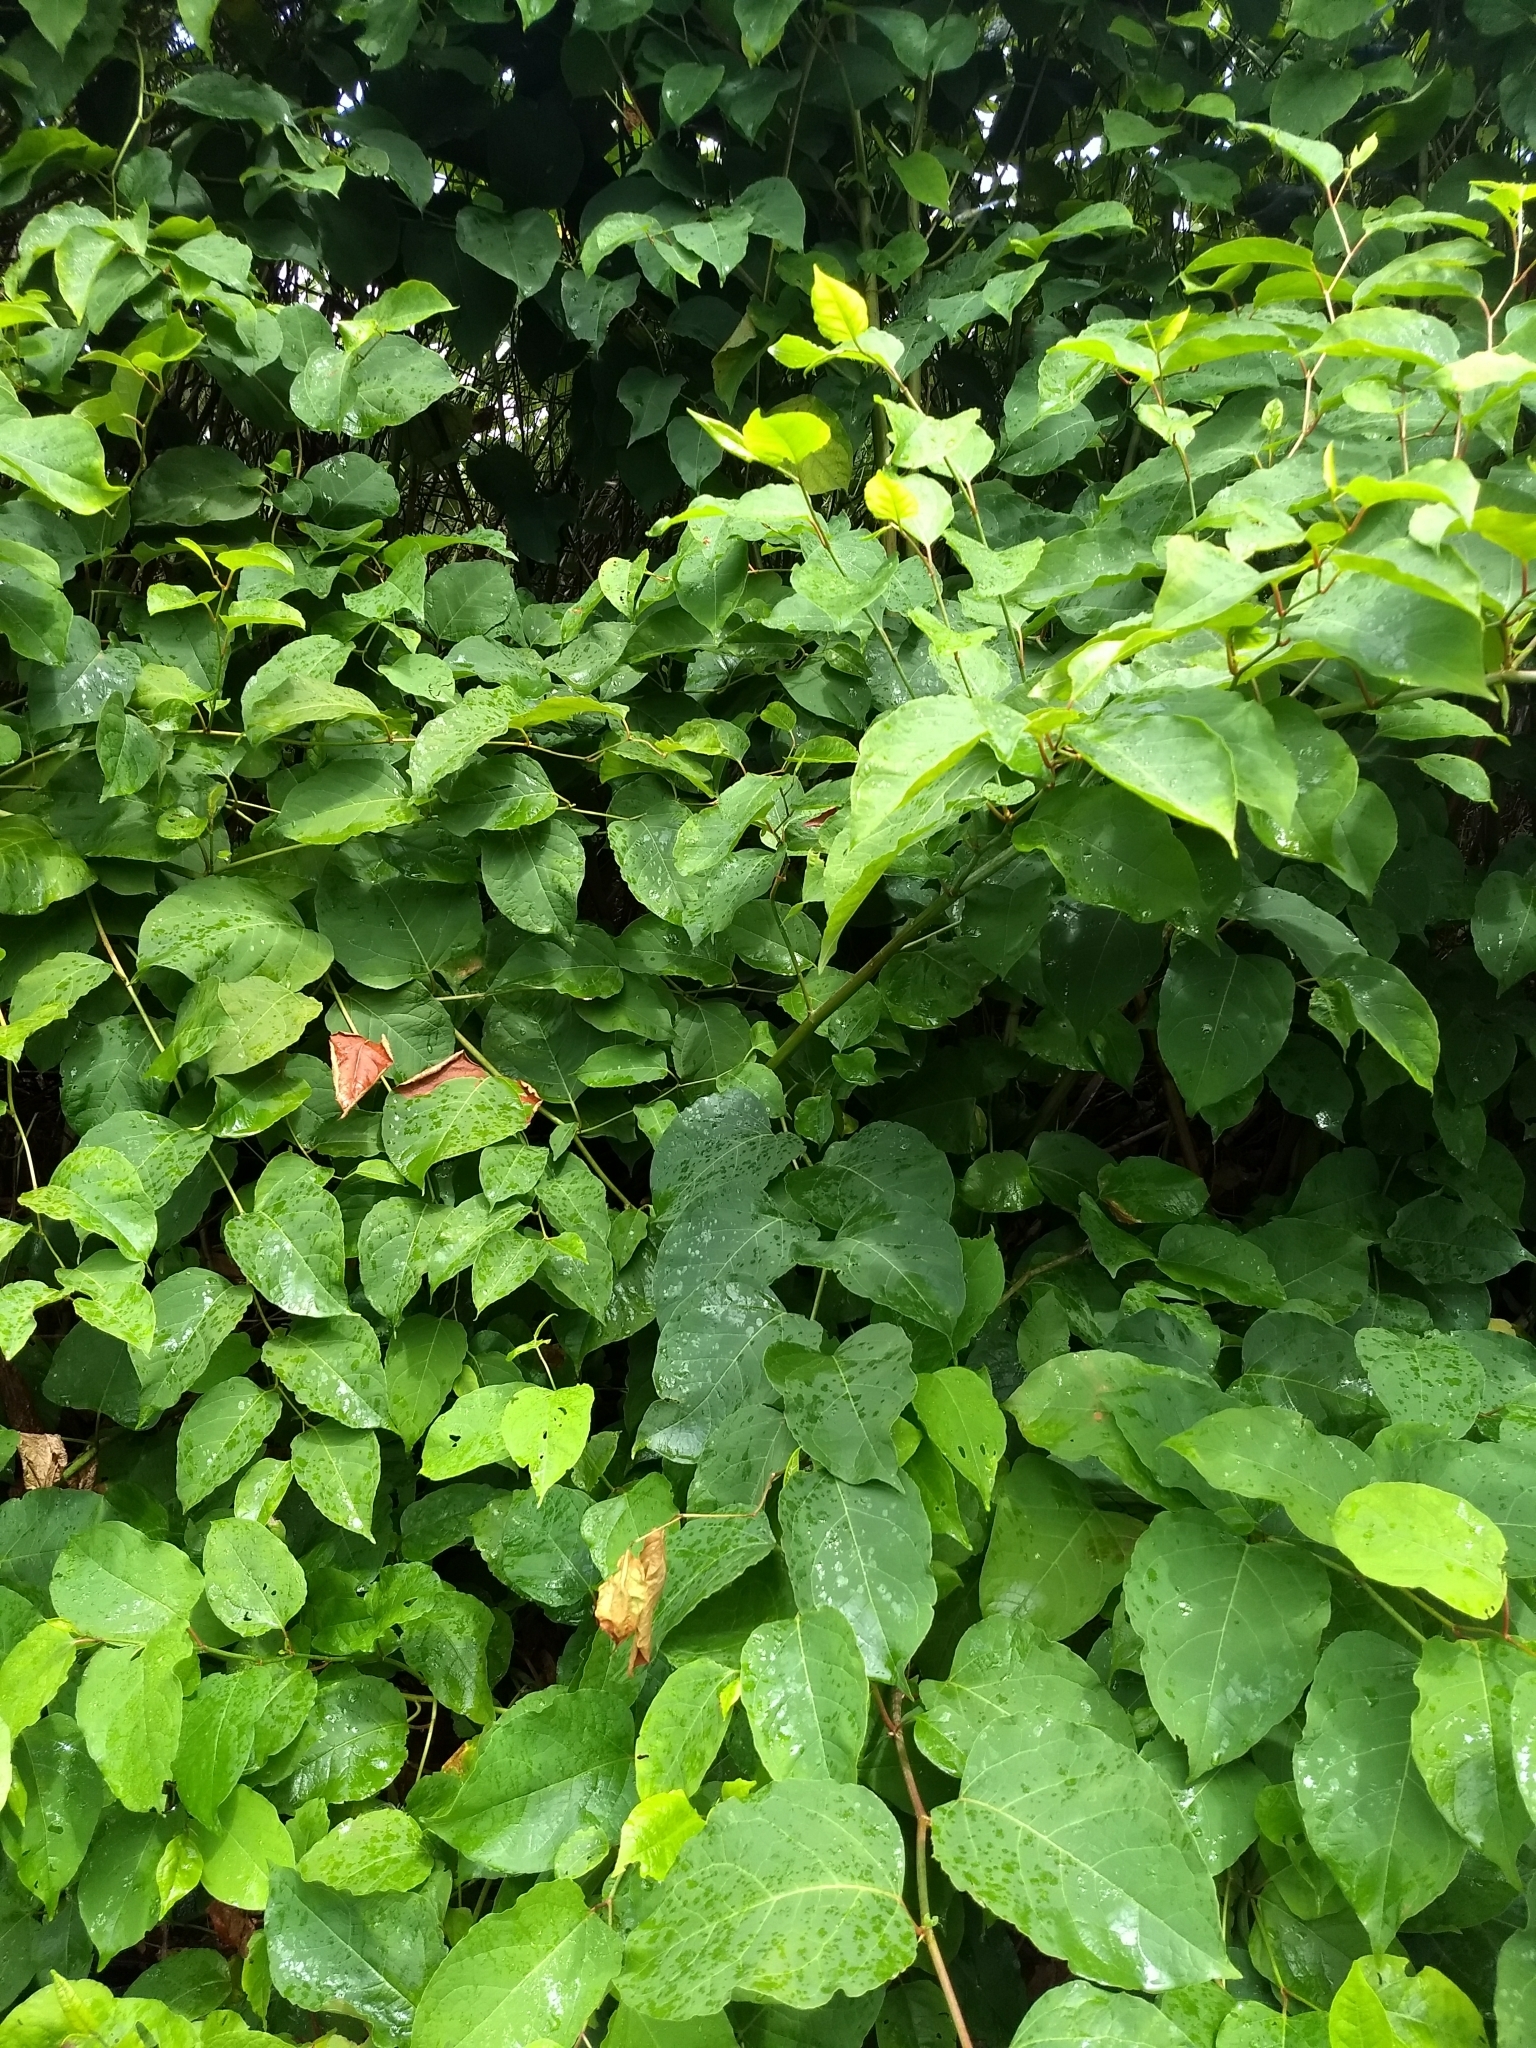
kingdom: Plantae
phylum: Tracheophyta
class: Magnoliopsida
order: Caryophyllales
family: Polygonaceae
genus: Reynoutria
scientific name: Reynoutria japonica
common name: Japanese knotweed
